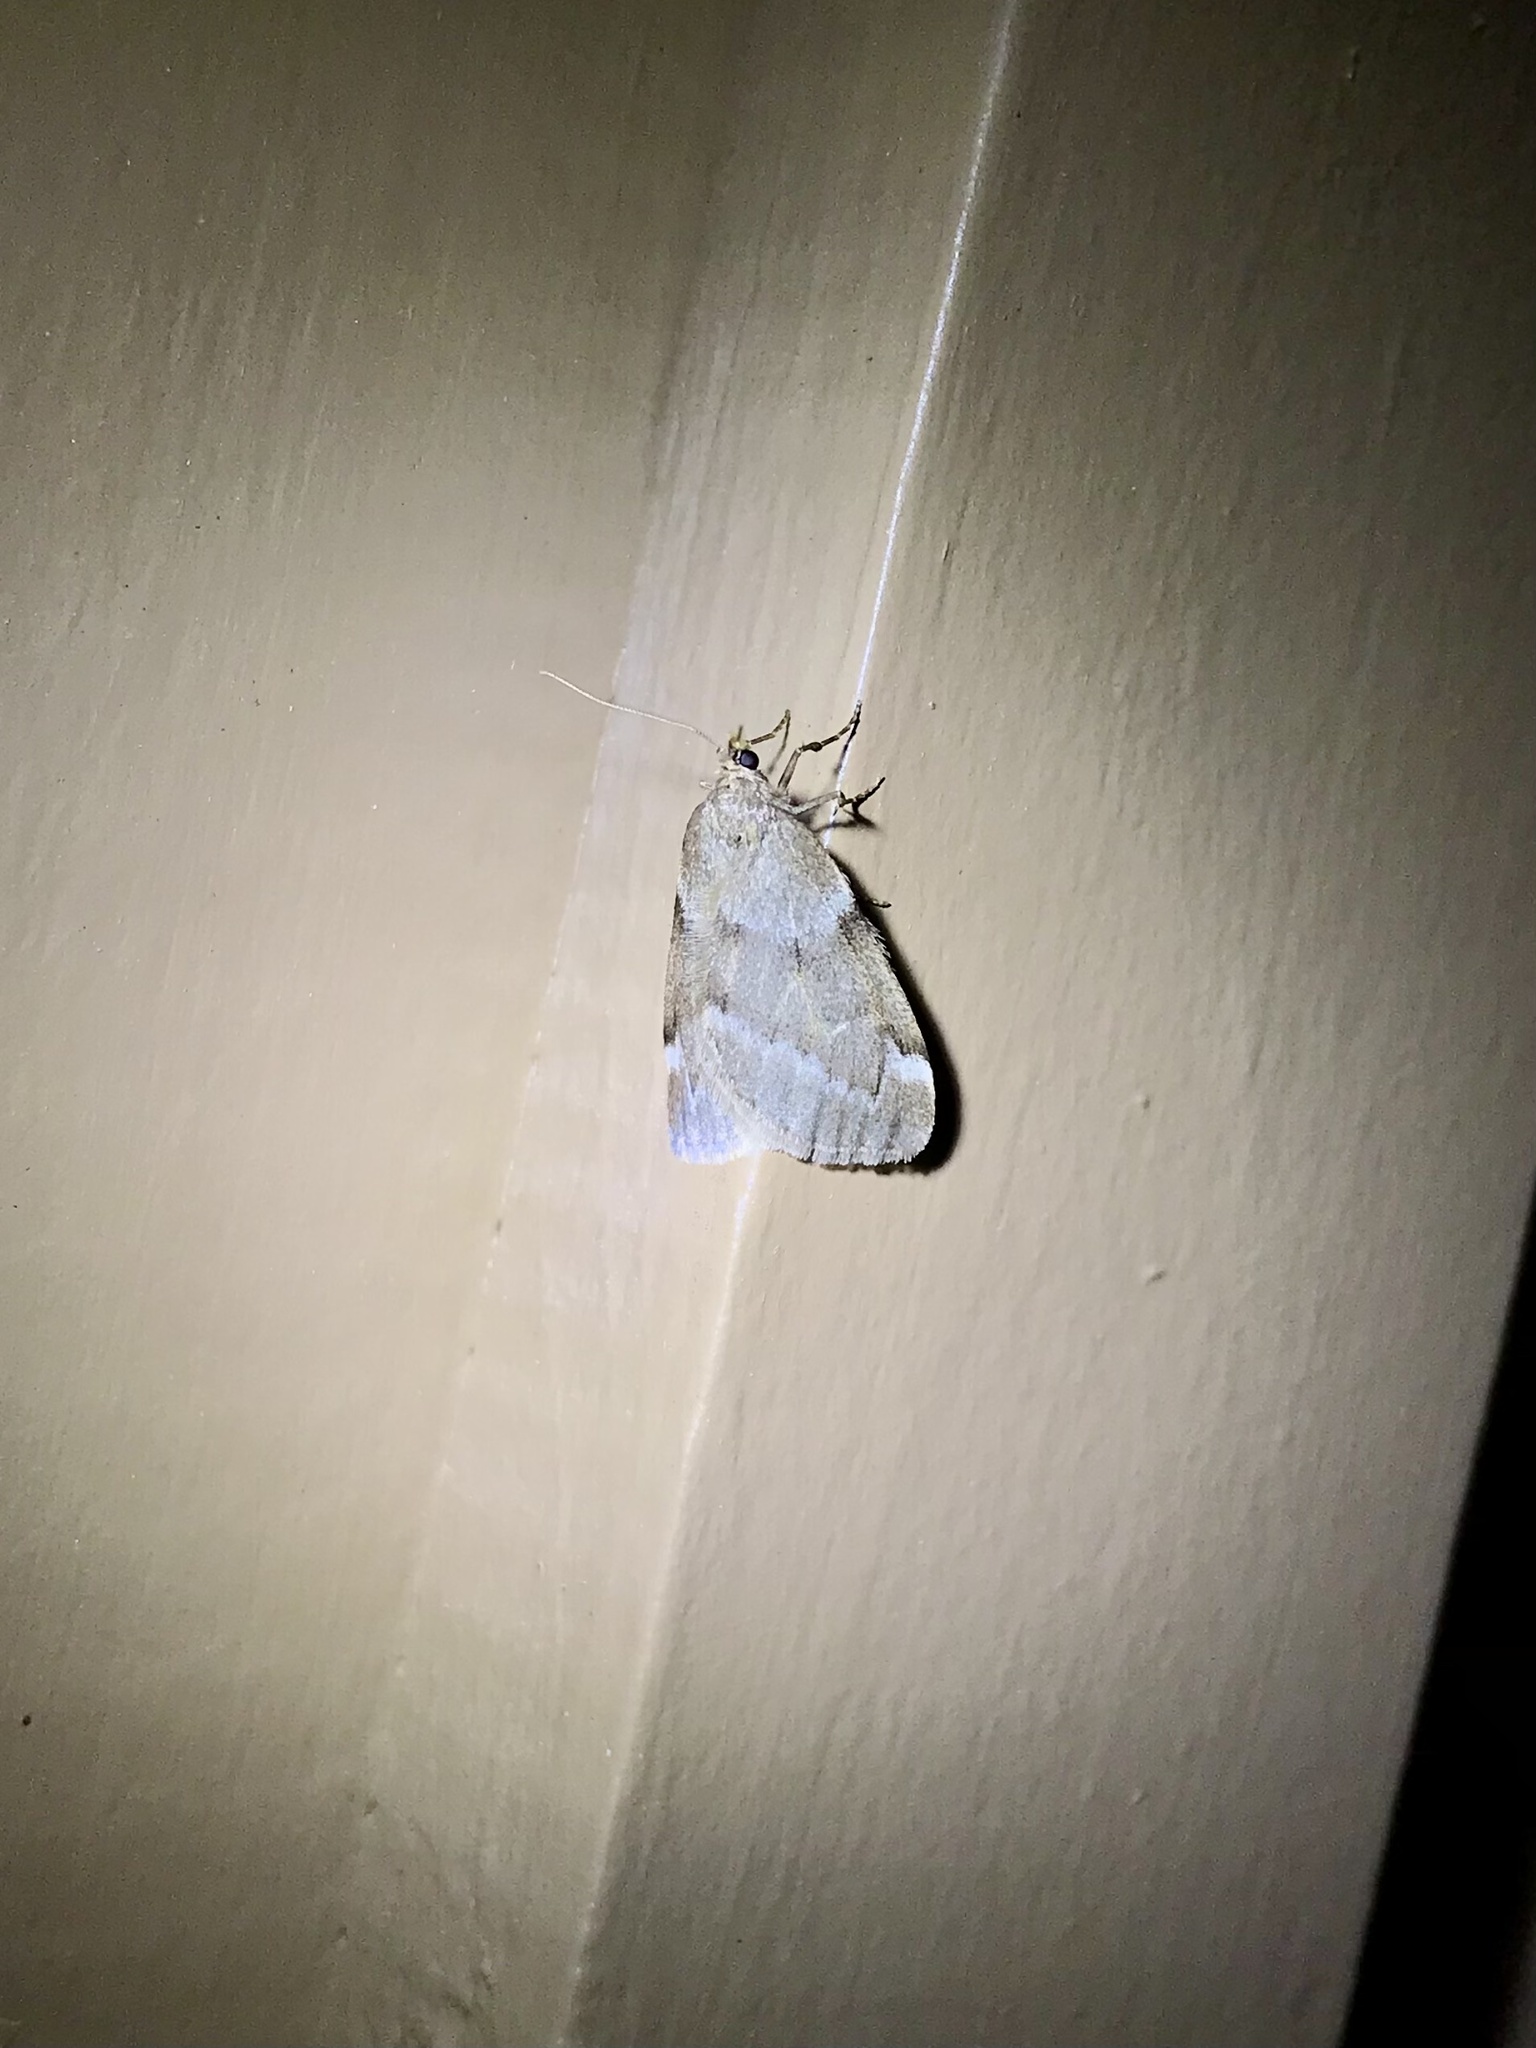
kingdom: Animalia
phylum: Arthropoda
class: Insecta
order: Lepidoptera
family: Geometridae
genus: Alsophila
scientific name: Alsophila pometaria
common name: Fall cankerworm
